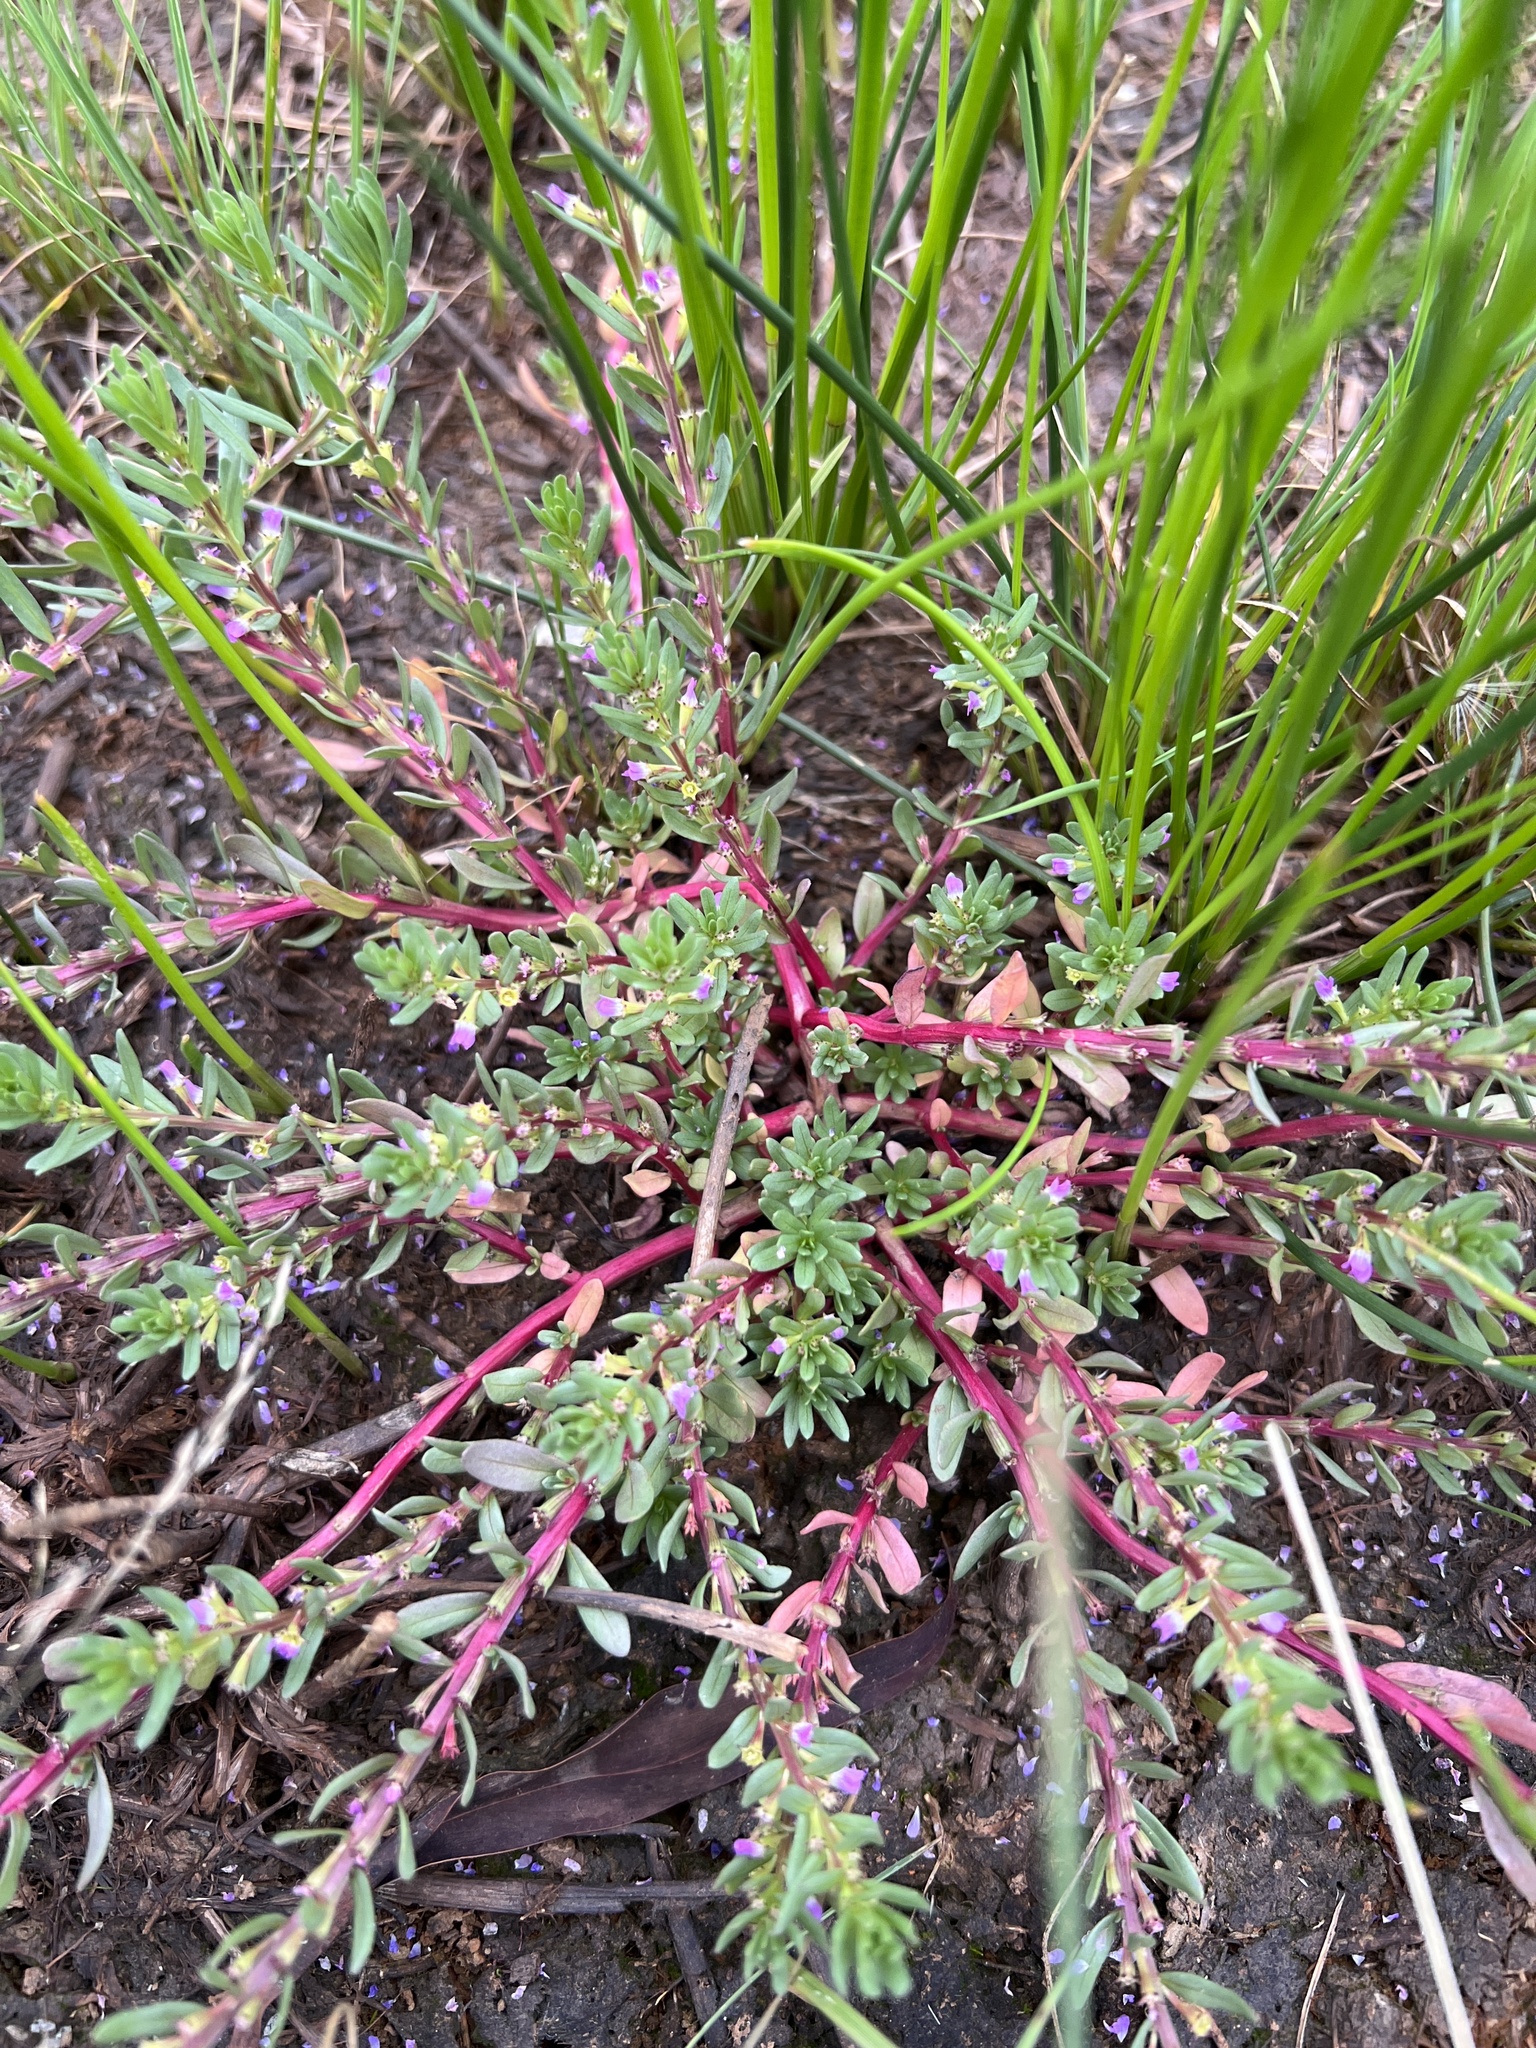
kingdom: Plantae
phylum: Tracheophyta
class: Magnoliopsida
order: Myrtales
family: Lythraceae
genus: Lythrum
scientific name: Lythrum hyssopifolia
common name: Grass-poly
